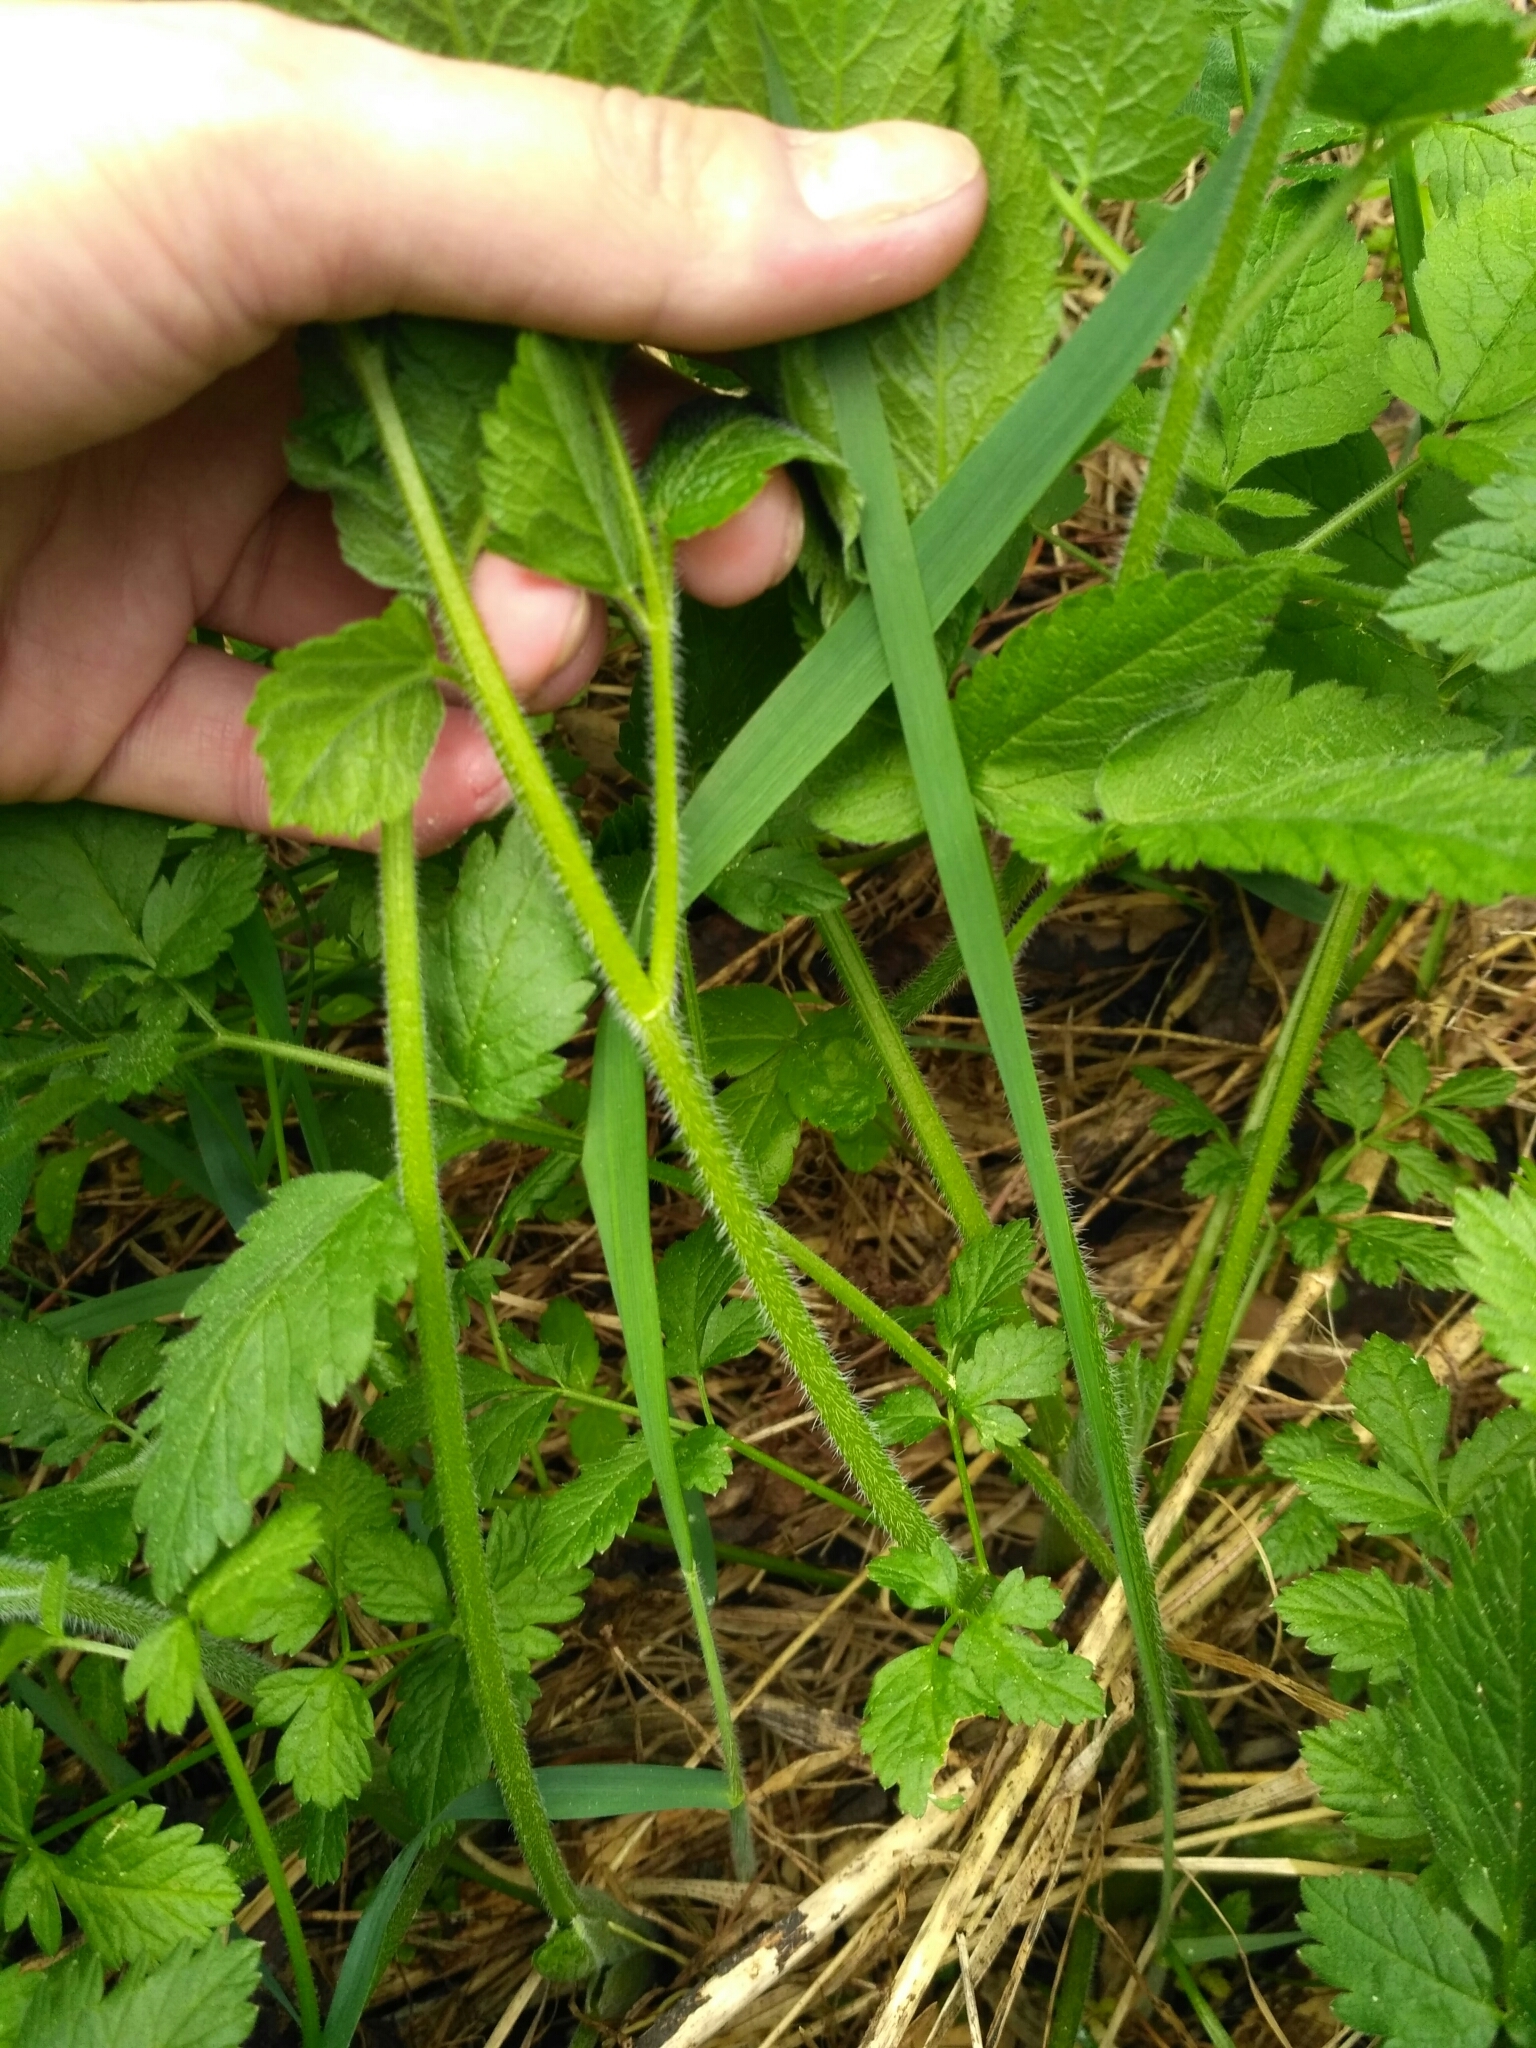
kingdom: Plantae
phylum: Tracheophyta
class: Magnoliopsida
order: Apiales
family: Apiaceae
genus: Chaerophyllum
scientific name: Chaerophyllum aromaticum
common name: Broadleaf chervil
